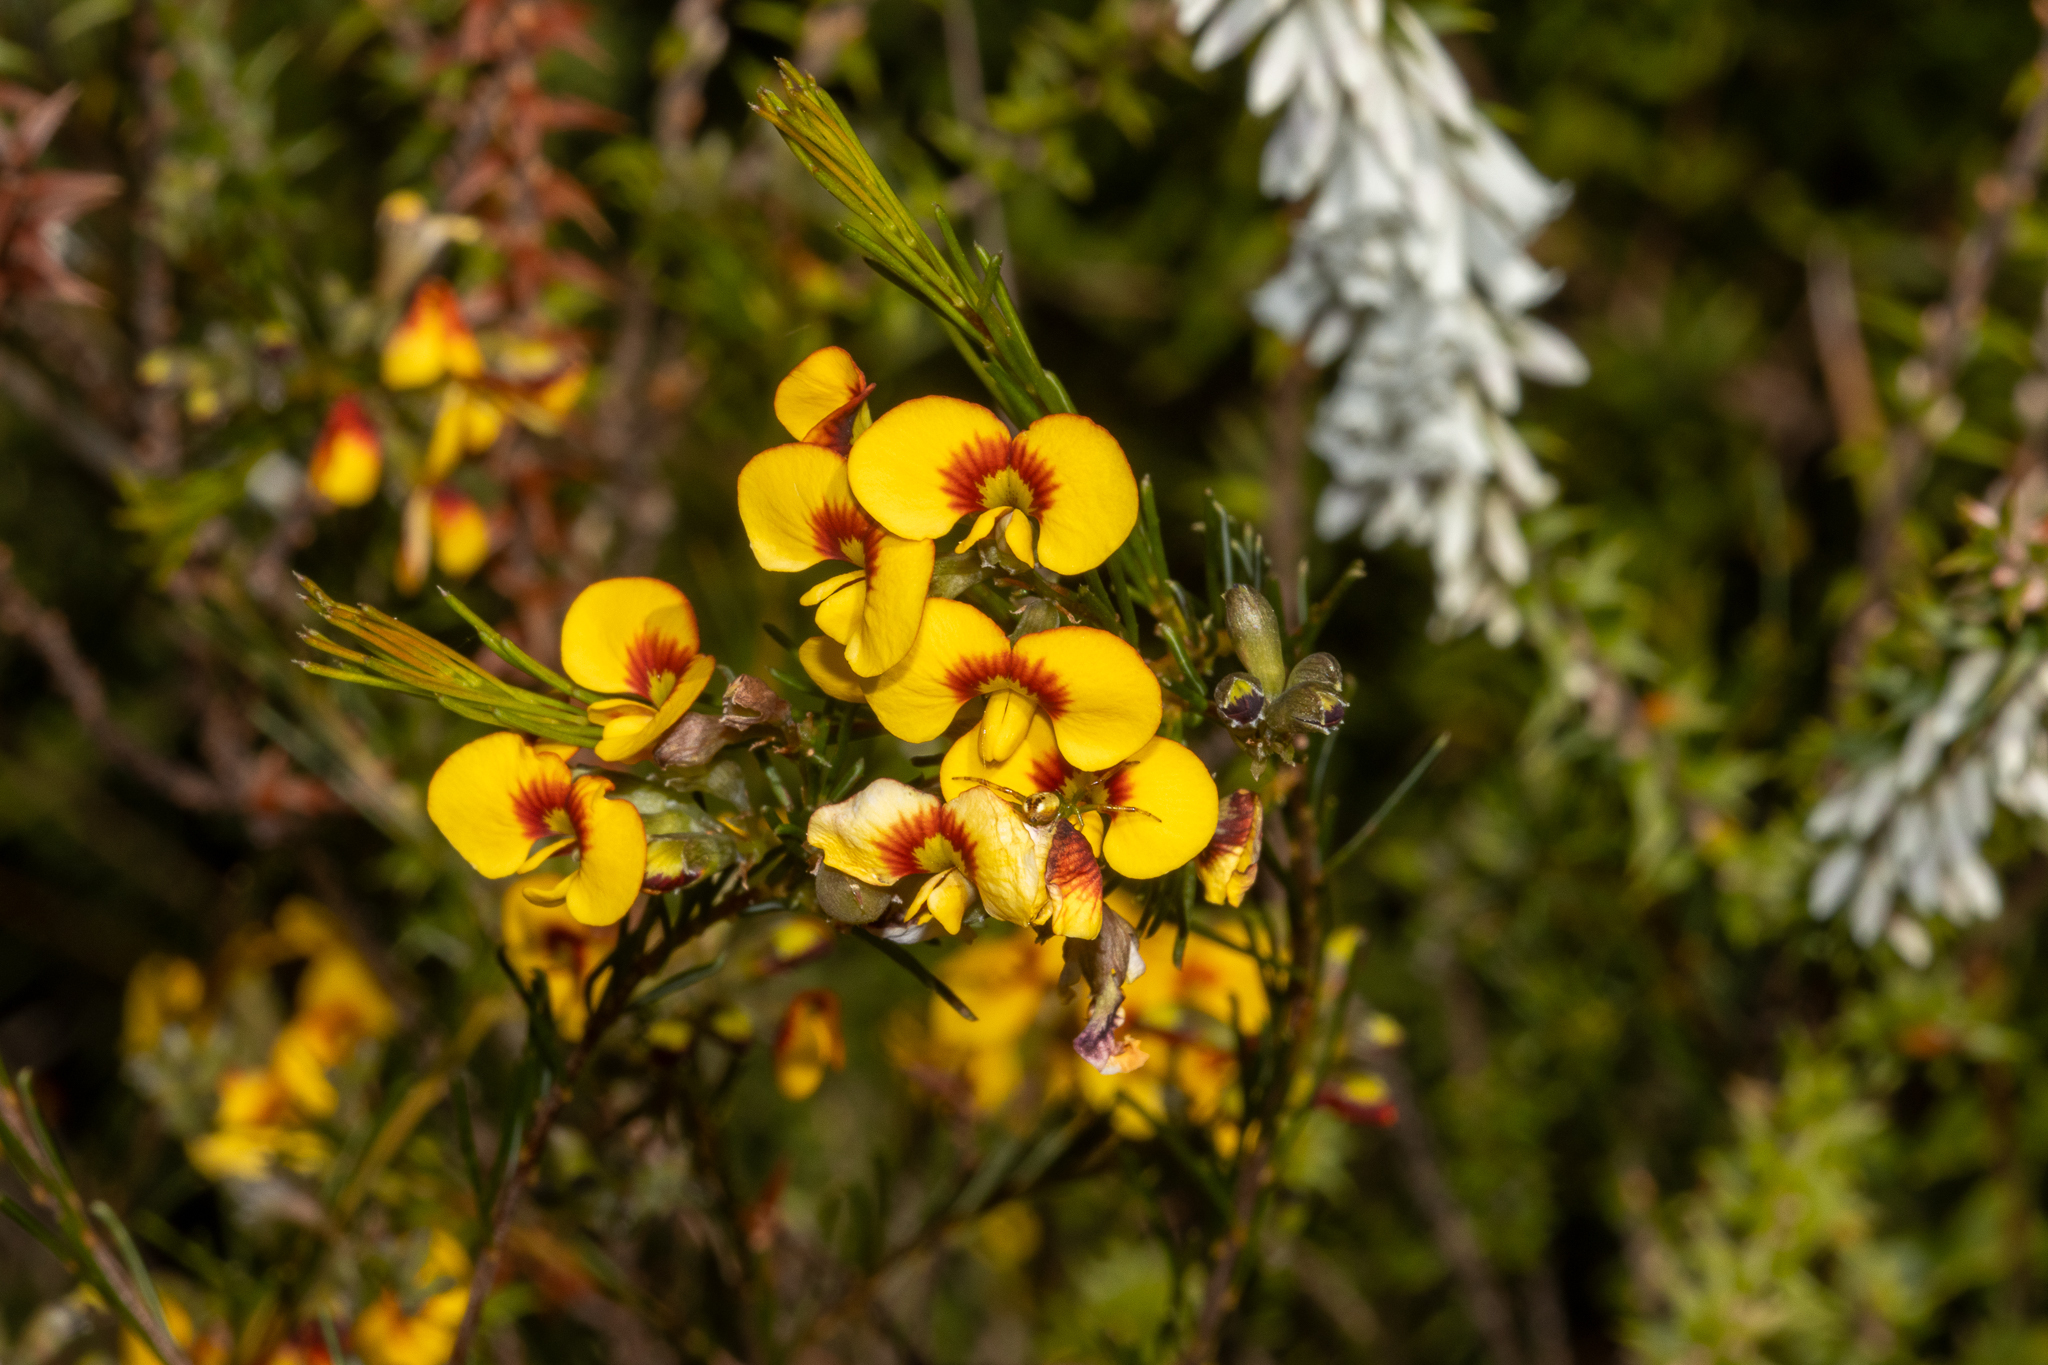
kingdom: Plantae
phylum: Tracheophyta
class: Magnoliopsida
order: Fabales
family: Fabaceae
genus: Dillwynia
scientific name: Dillwynia glaberrima
